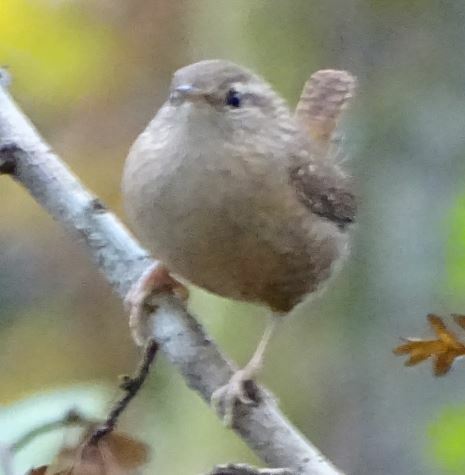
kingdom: Animalia
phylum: Chordata
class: Aves
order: Passeriformes
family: Troglodytidae
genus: Troglodytes
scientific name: Troglodytes troglodytes
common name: Eurasian wren
